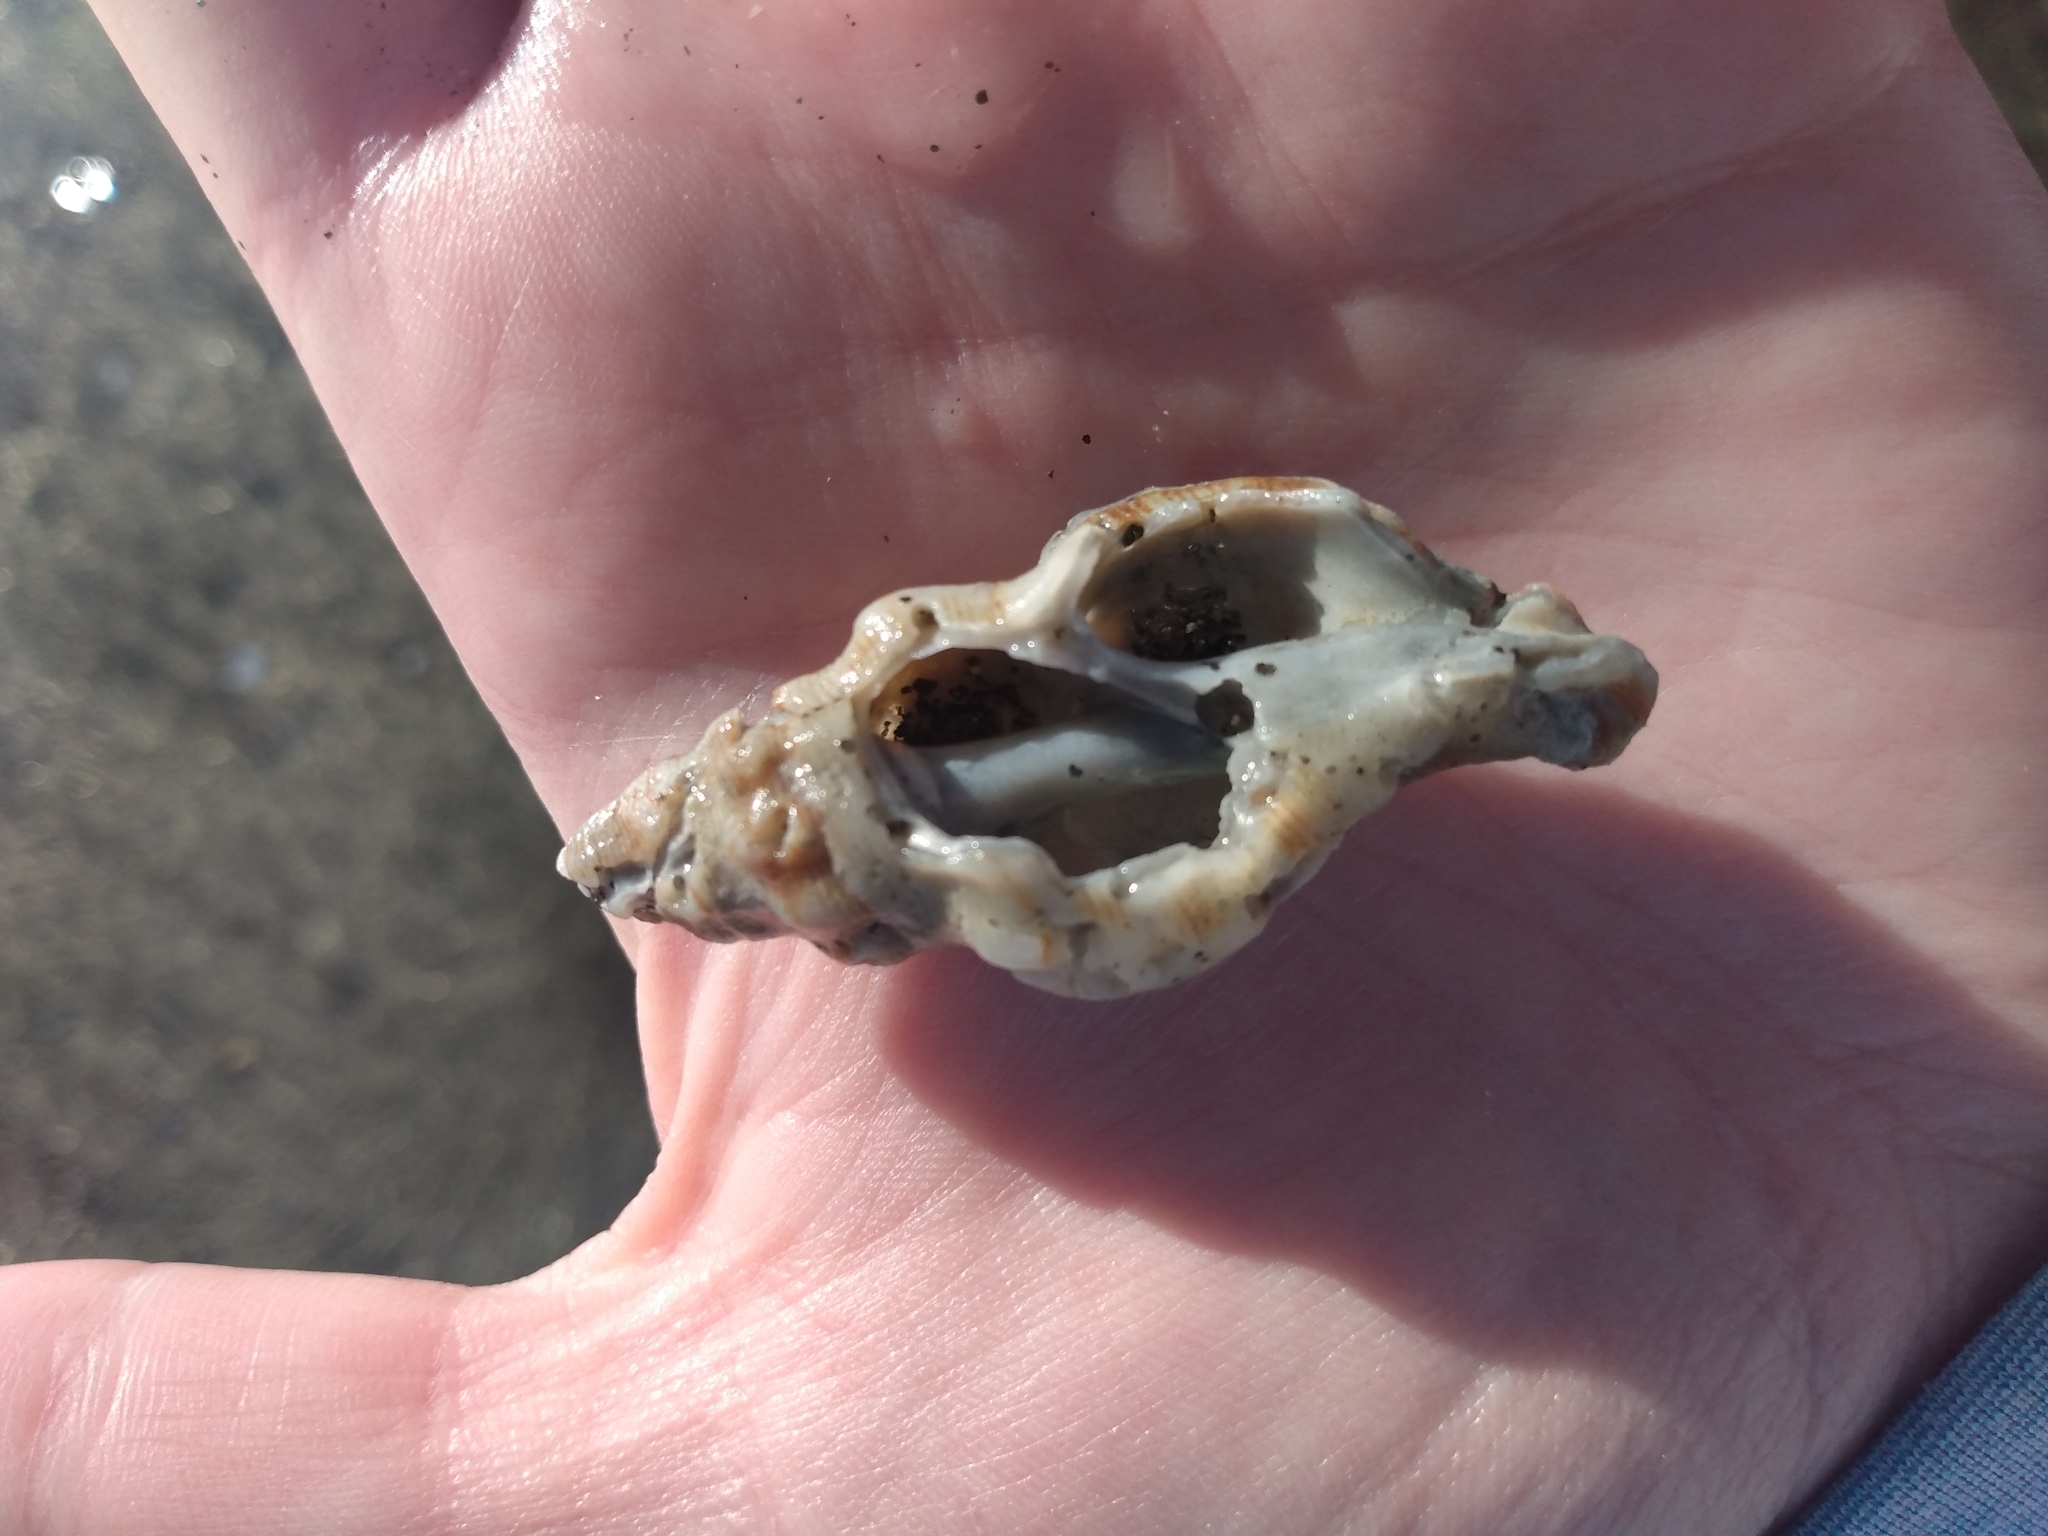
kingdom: Animalia
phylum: Mollusca
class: Gastropoda
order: Neogastropoda
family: Muricidae
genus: Roperia
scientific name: Roperia poulsoni
